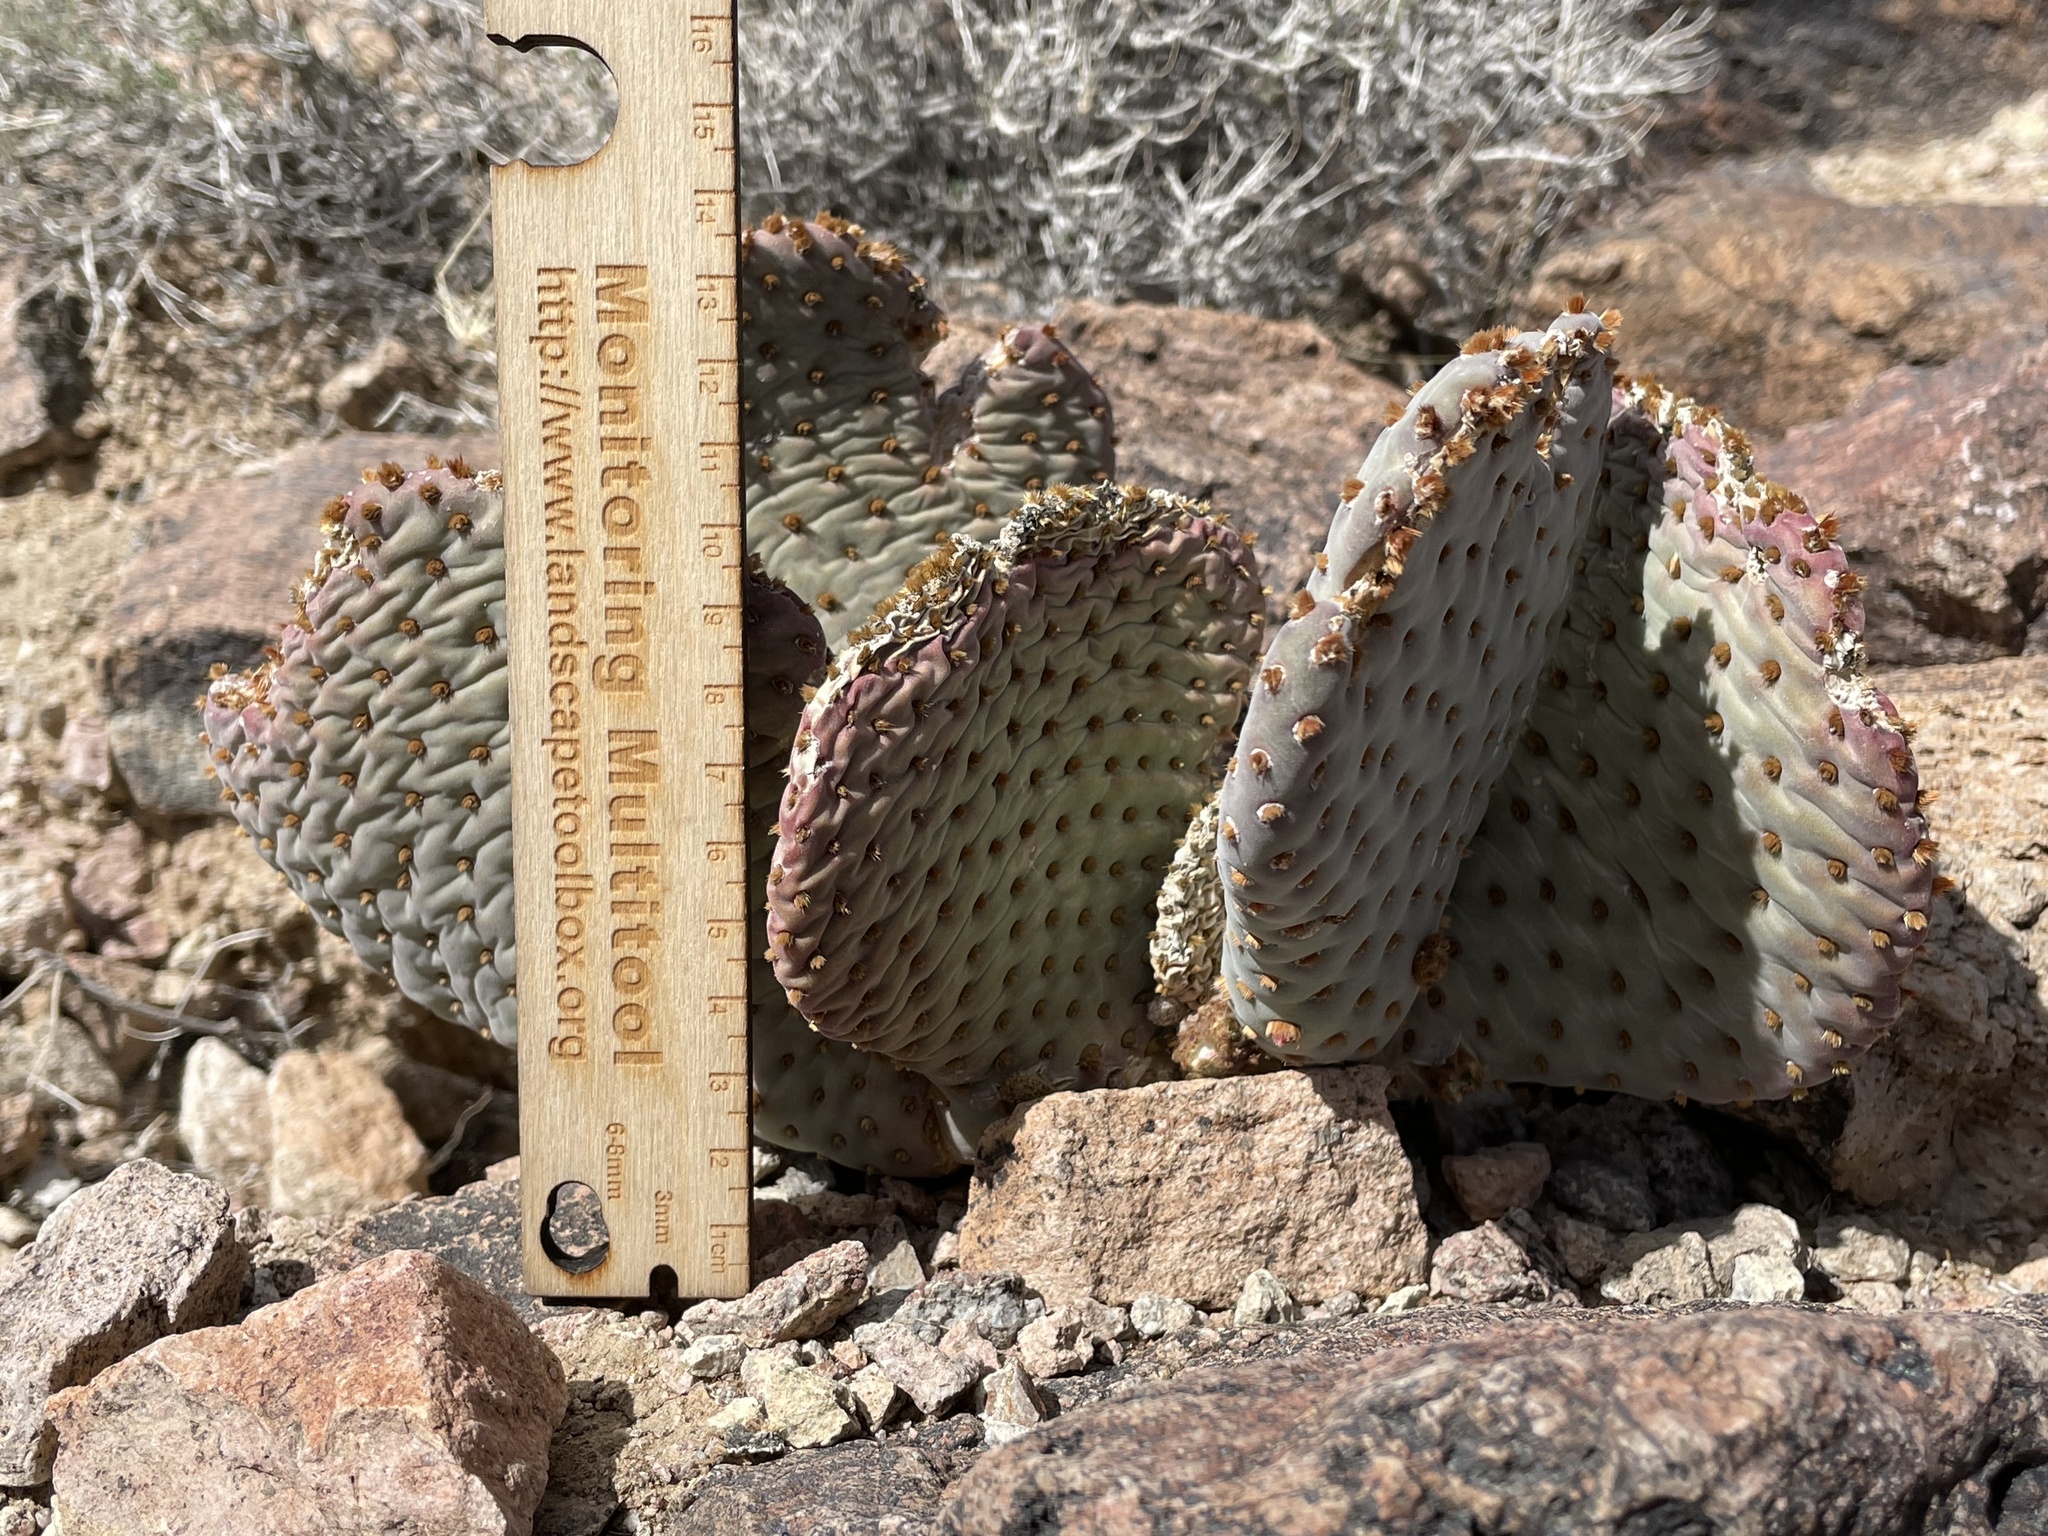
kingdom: Plantae
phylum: Tracheophyta
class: Magnoliopsida
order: Caryophyllales
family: Cactaceae
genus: Opuntia
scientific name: Opuntia basilaris
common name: Beavertail prickly-pear
